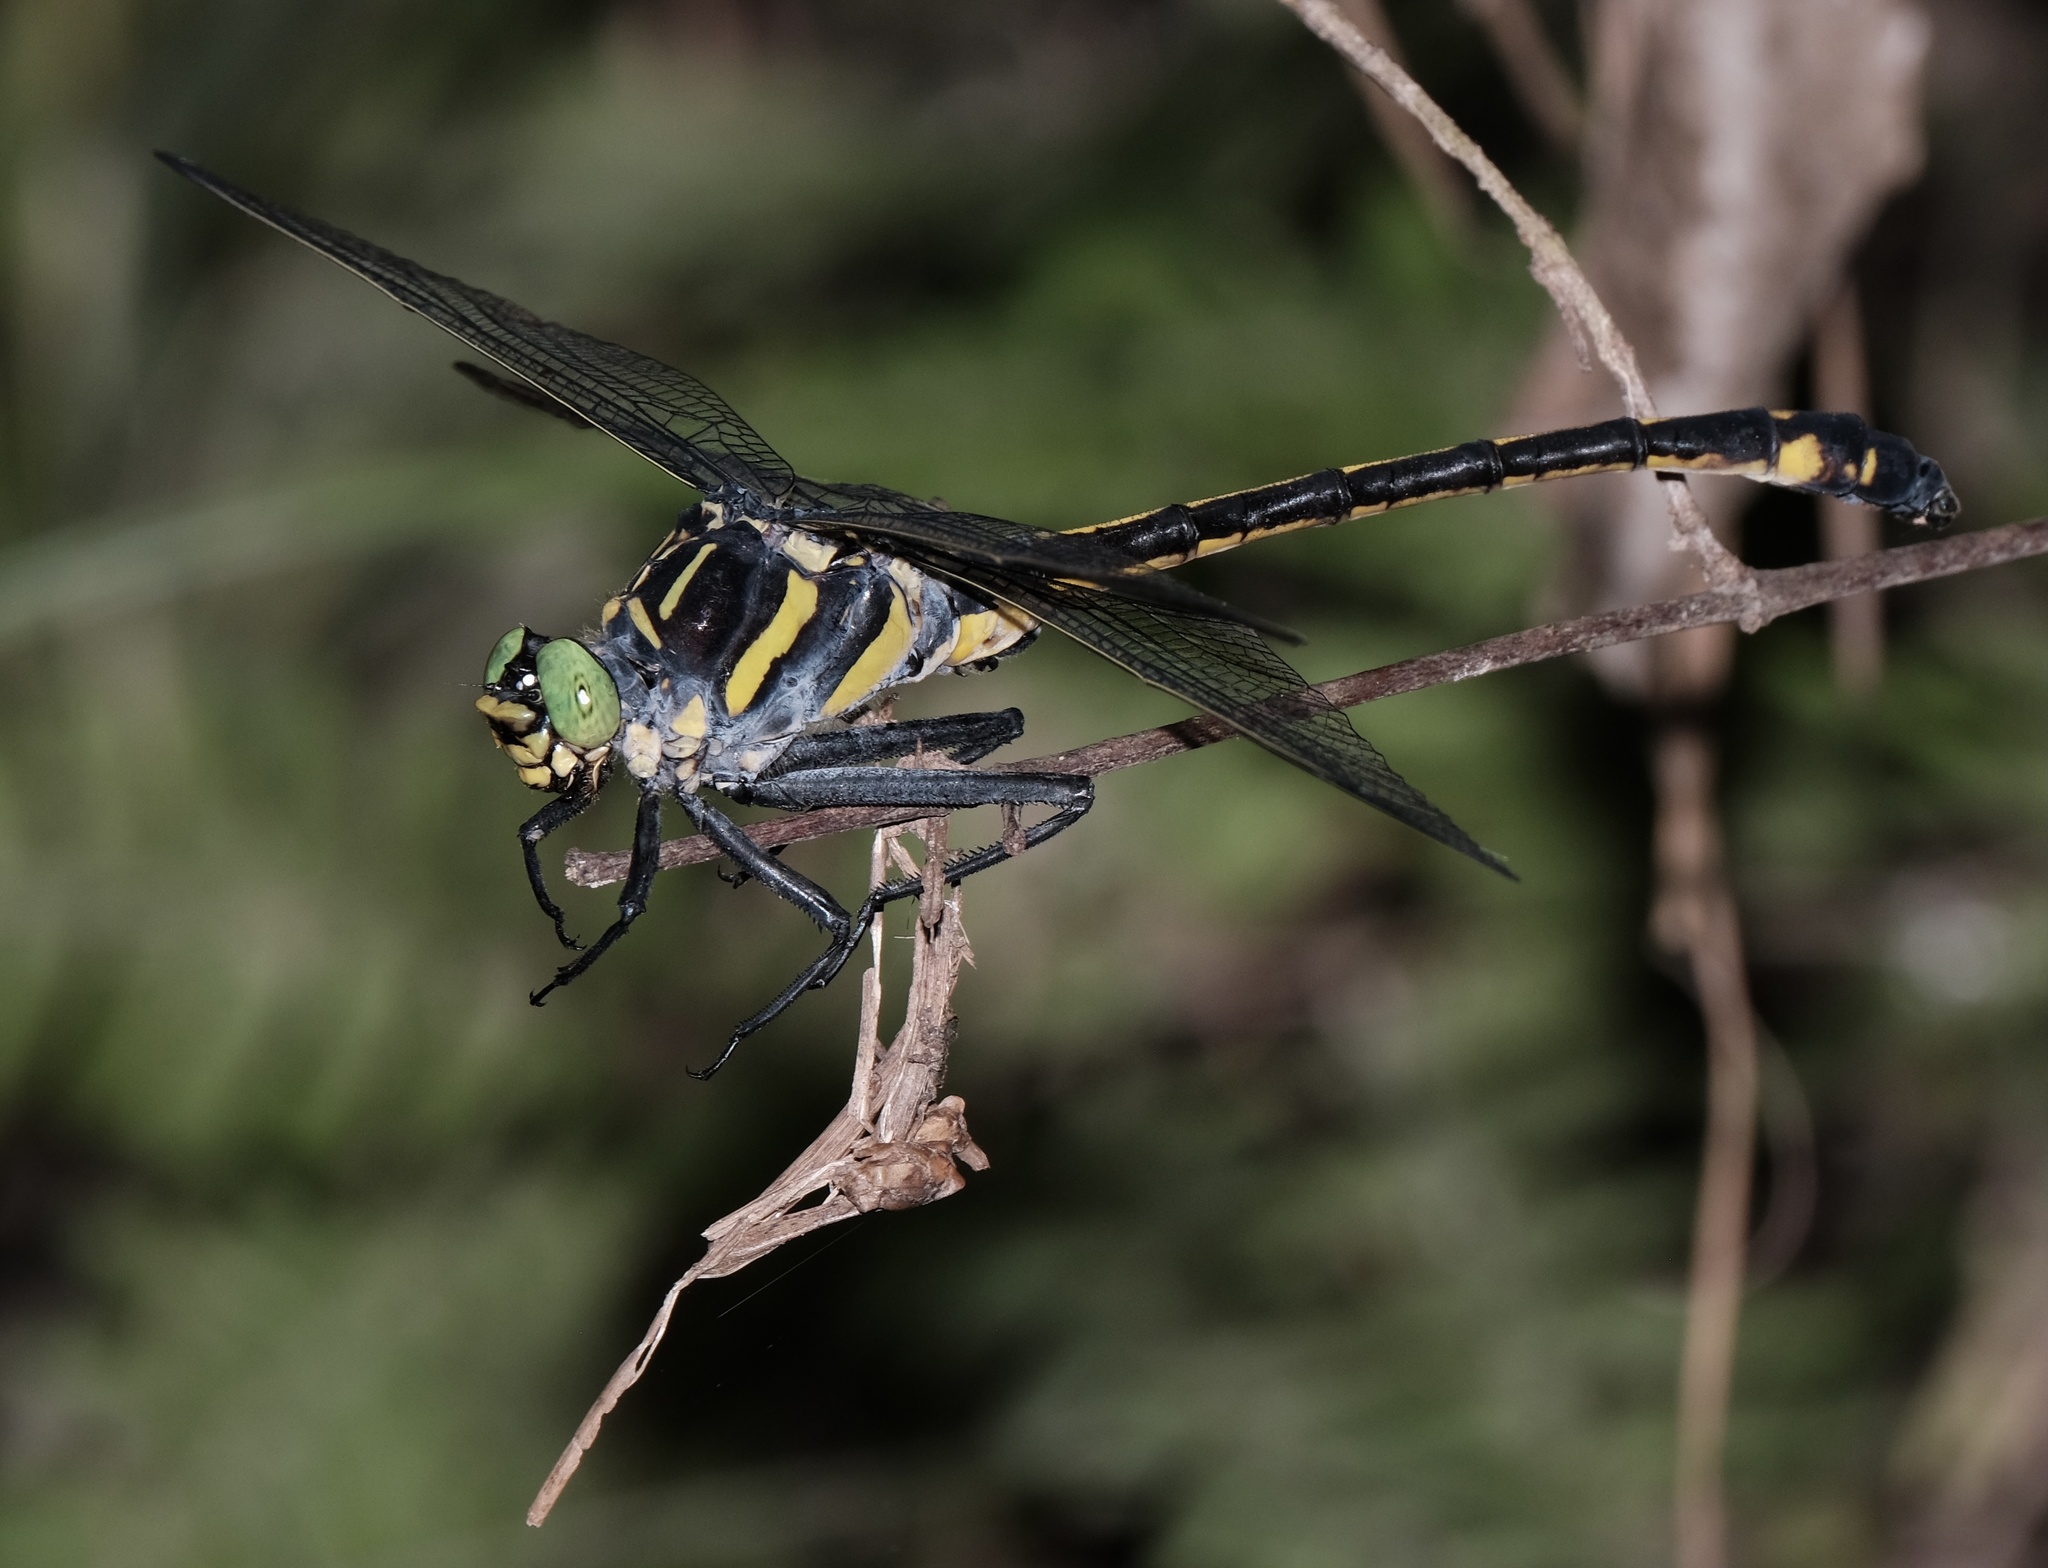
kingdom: Animalia
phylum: Arthropoda
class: Insecta
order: Odonata
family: Gomphidae
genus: Hagenius
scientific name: Hagenius brevistylus
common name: Dragonhunter
